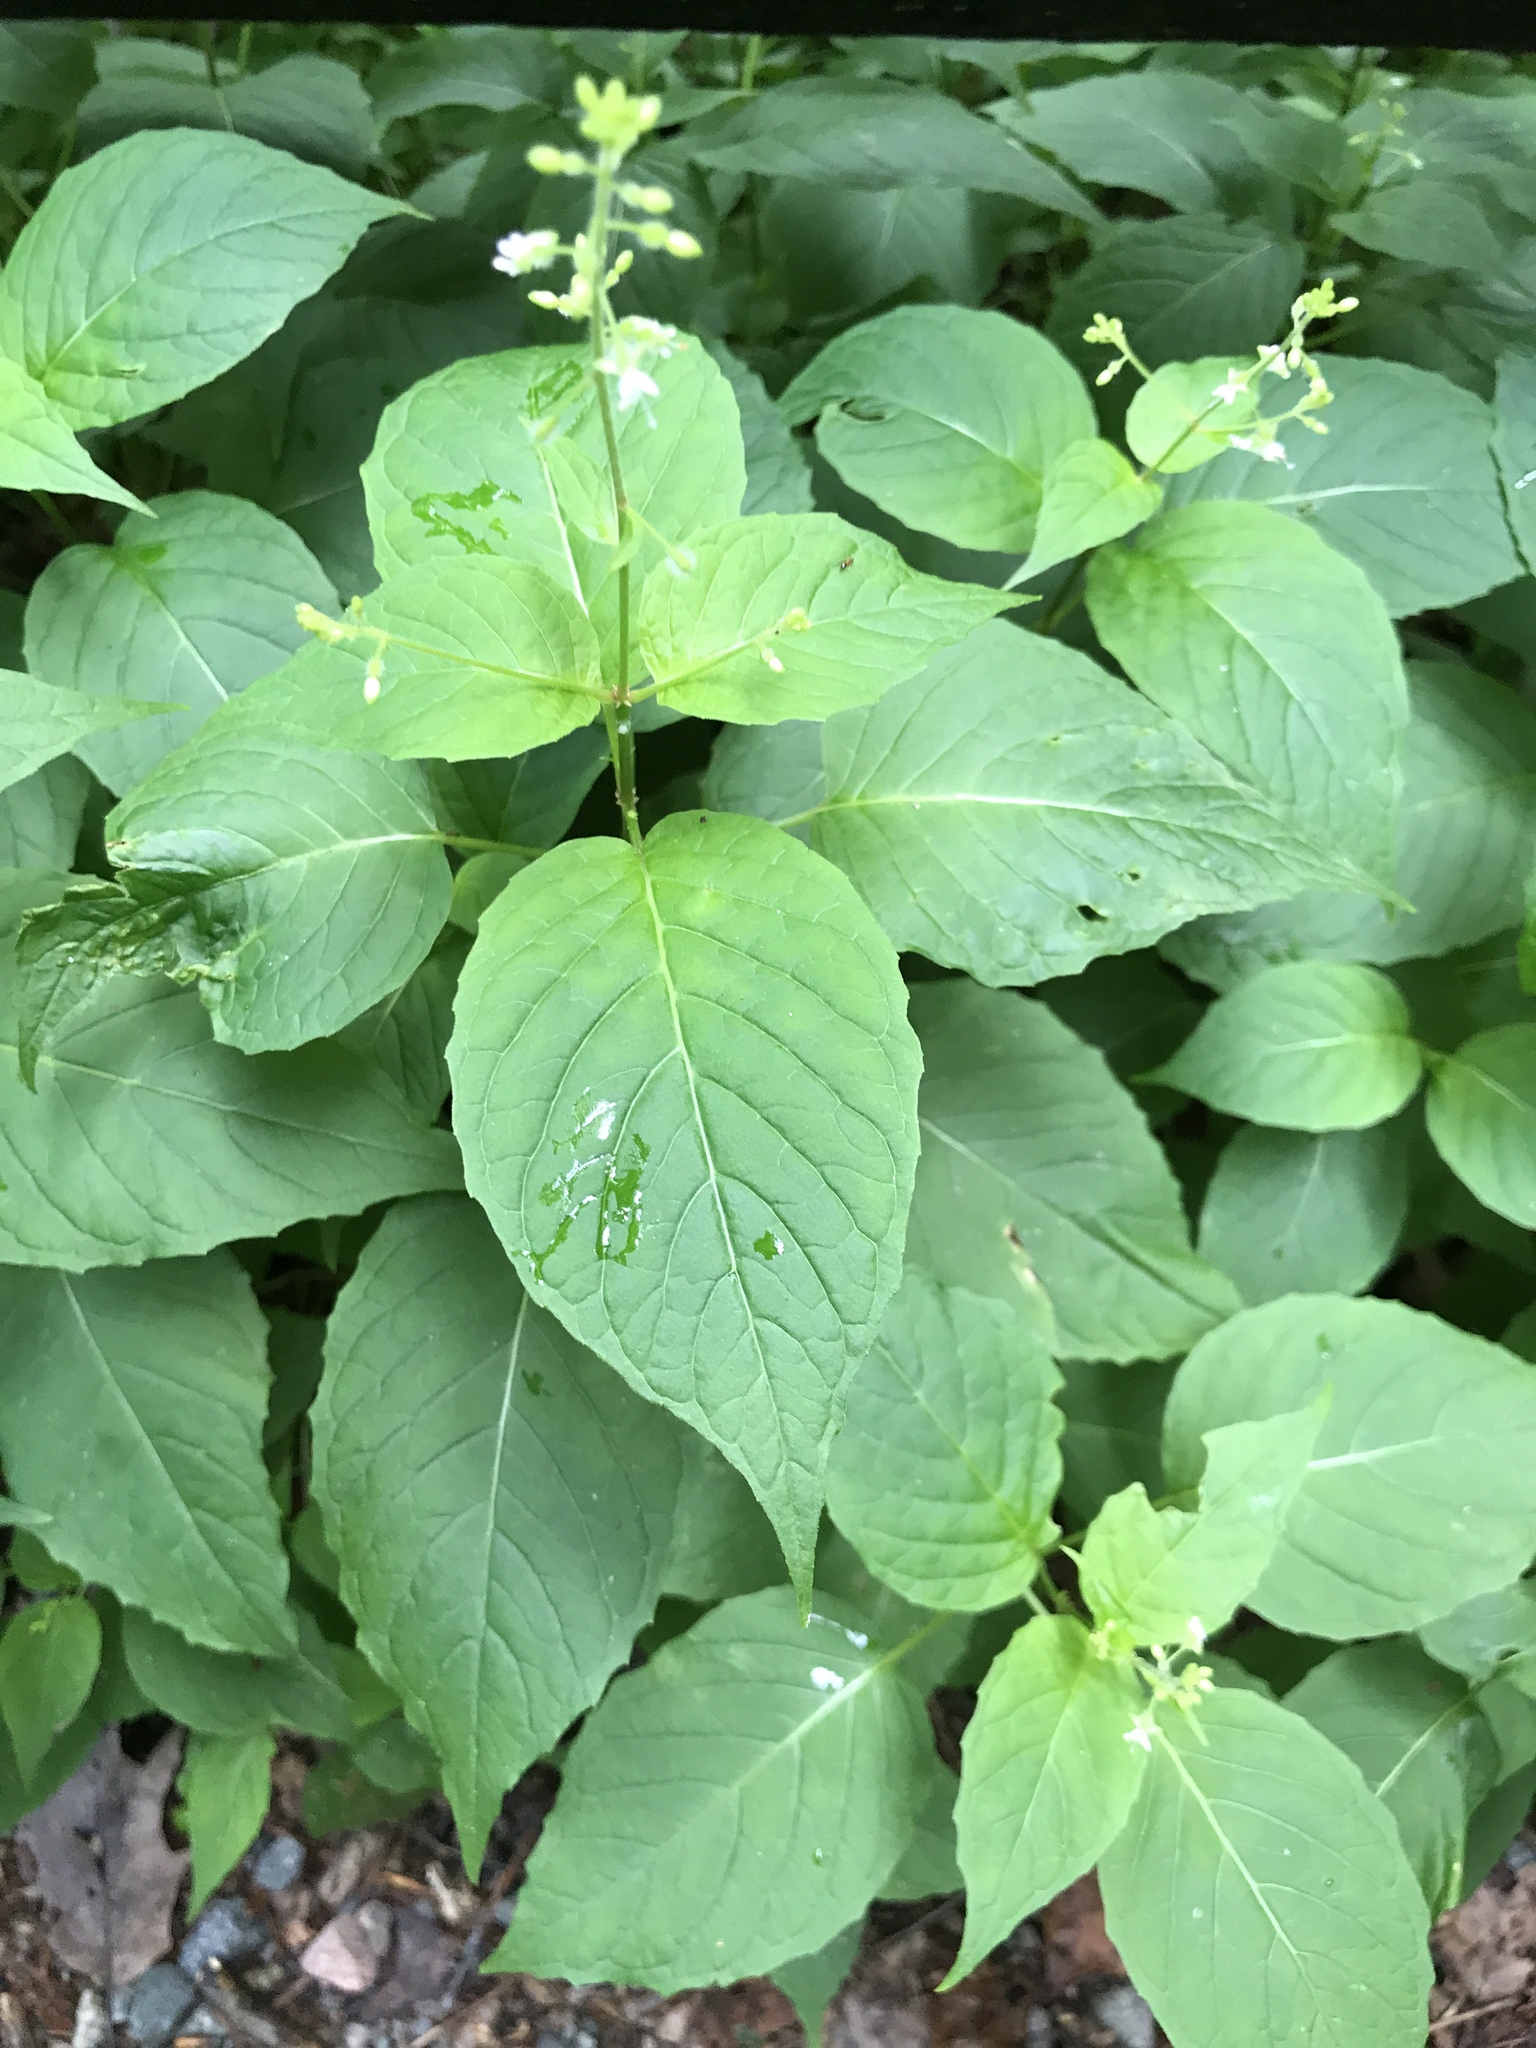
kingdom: Plantae
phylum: Tracheophyta
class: Magnoliopsida
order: Myrtales
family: Onagraceae
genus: Circaea
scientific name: Circaea canadensis
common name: Broad-leaved enchanter's nightshade
